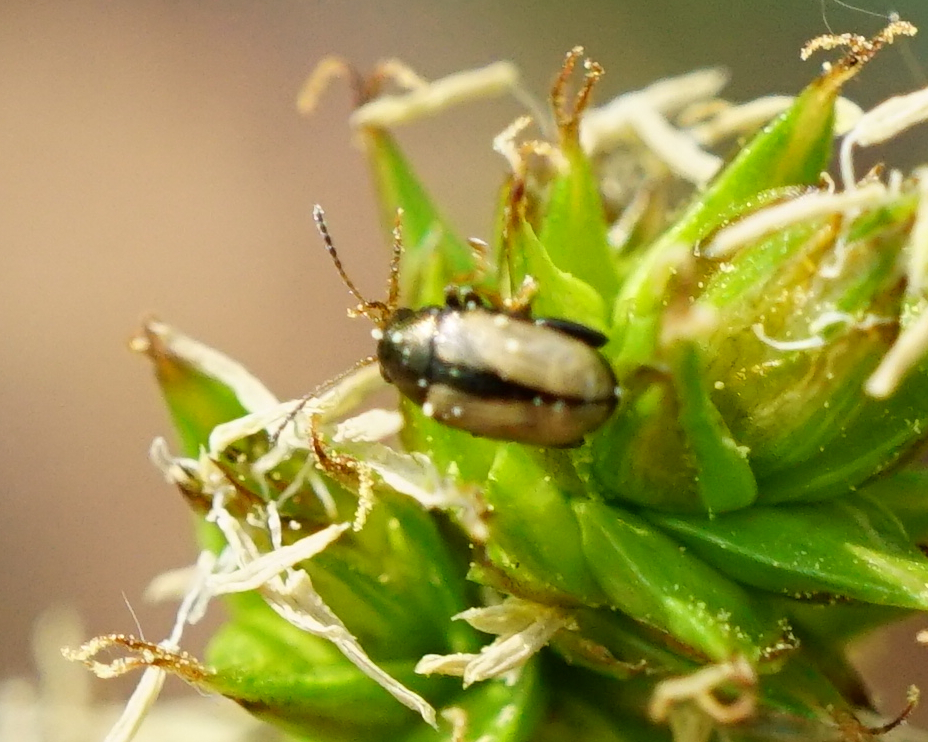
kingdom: Animalia
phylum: Arthropoda
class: Insecta
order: Coleoptera
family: Chrysomelidae
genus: Chaetocnema
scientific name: Chaetocnema conducta
